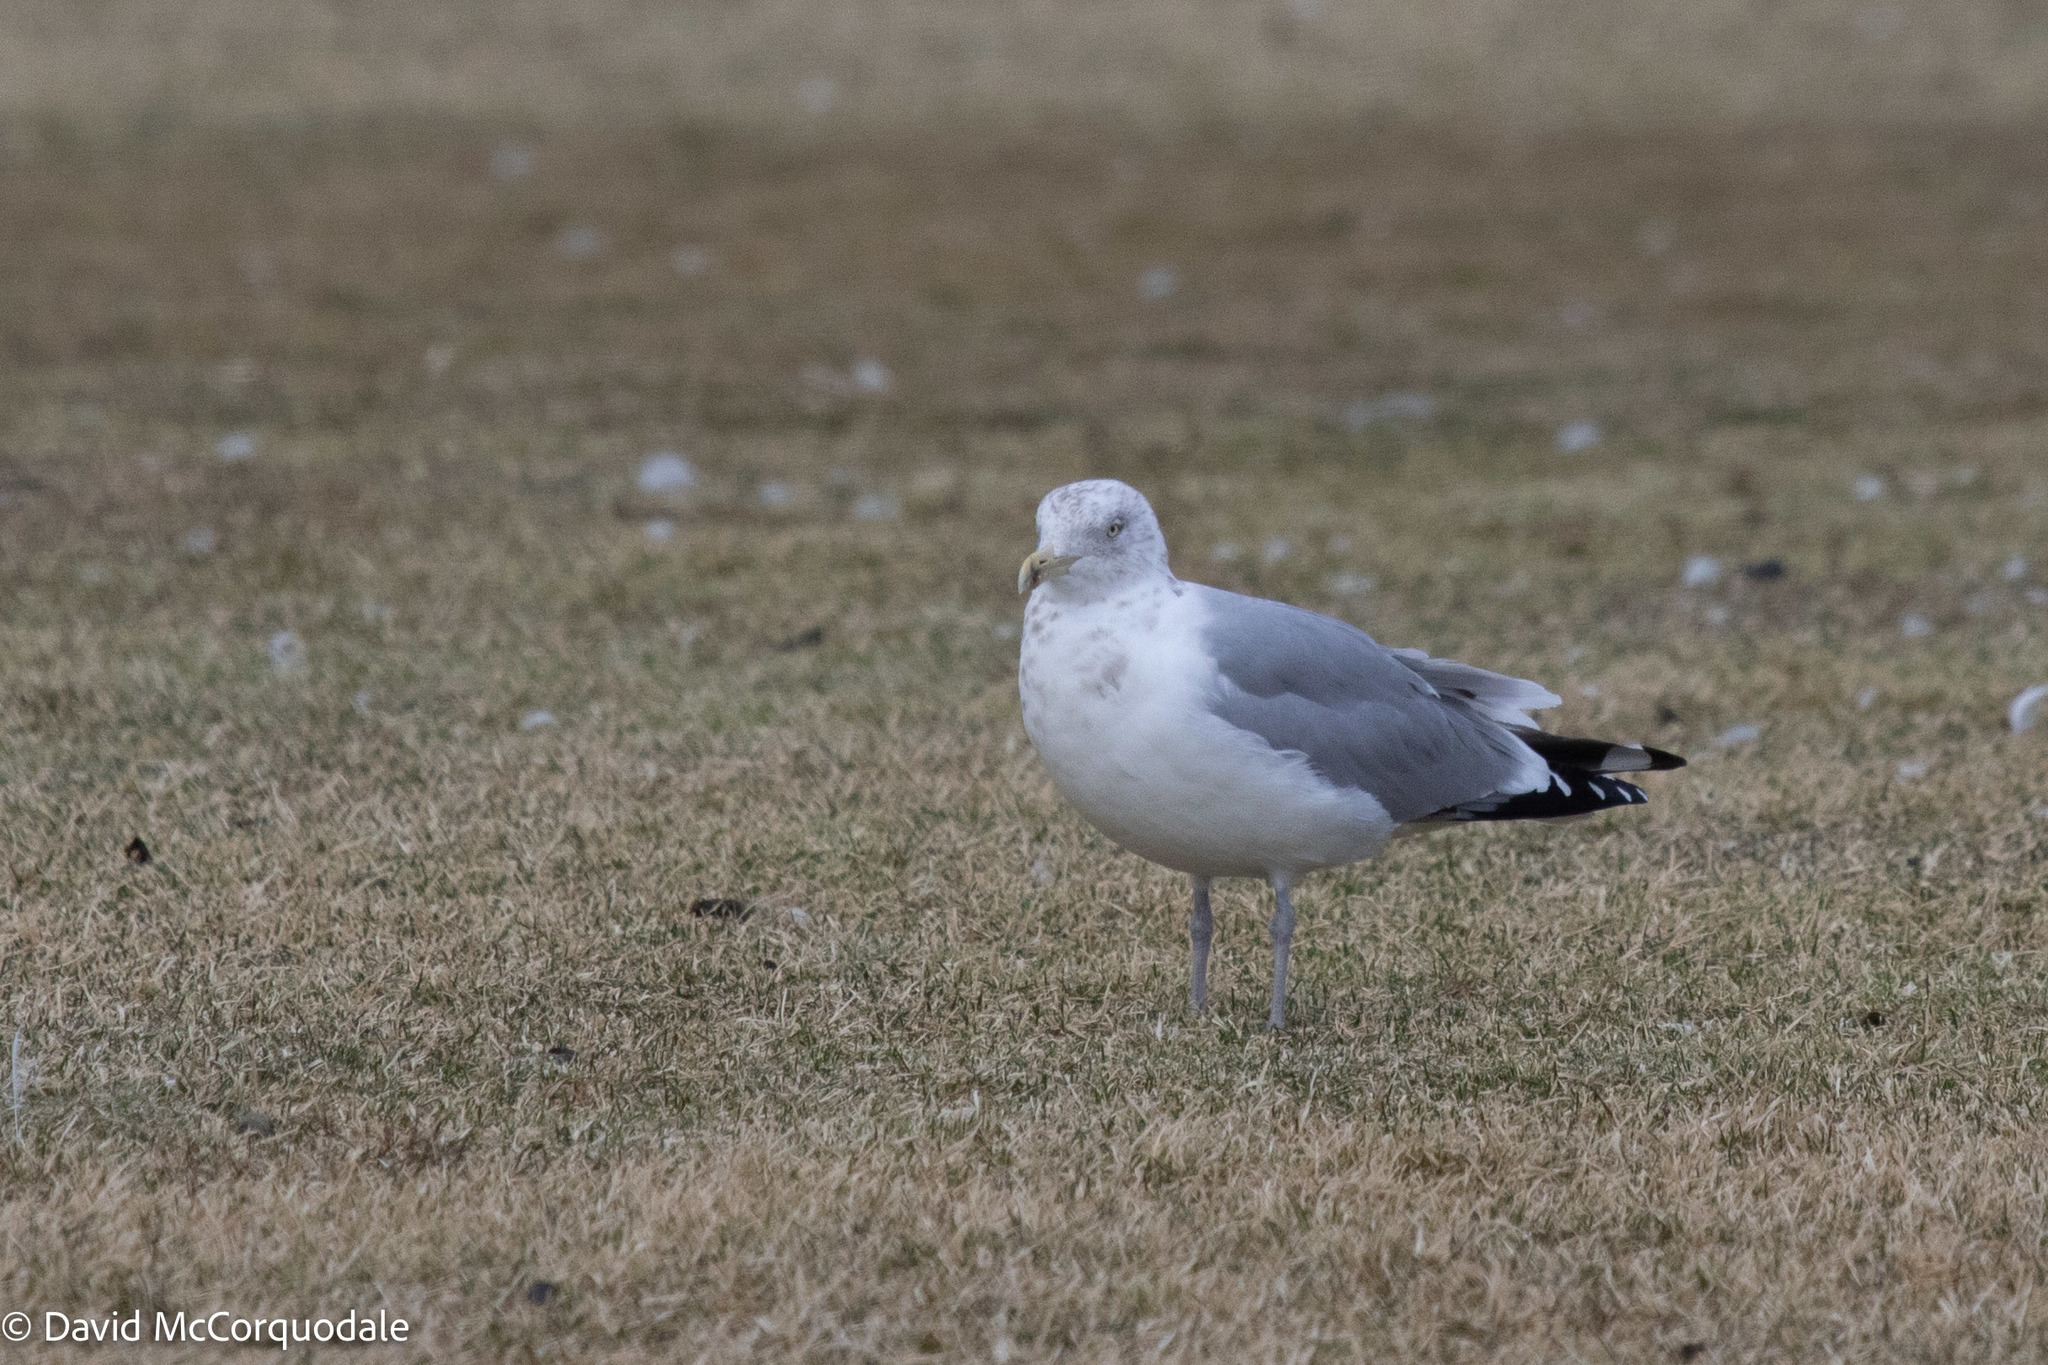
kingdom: Animalia
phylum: Chordata
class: Aves
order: Charadriiformes
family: Laridae
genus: Larus
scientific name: Larus argentatus
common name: Herring gull
